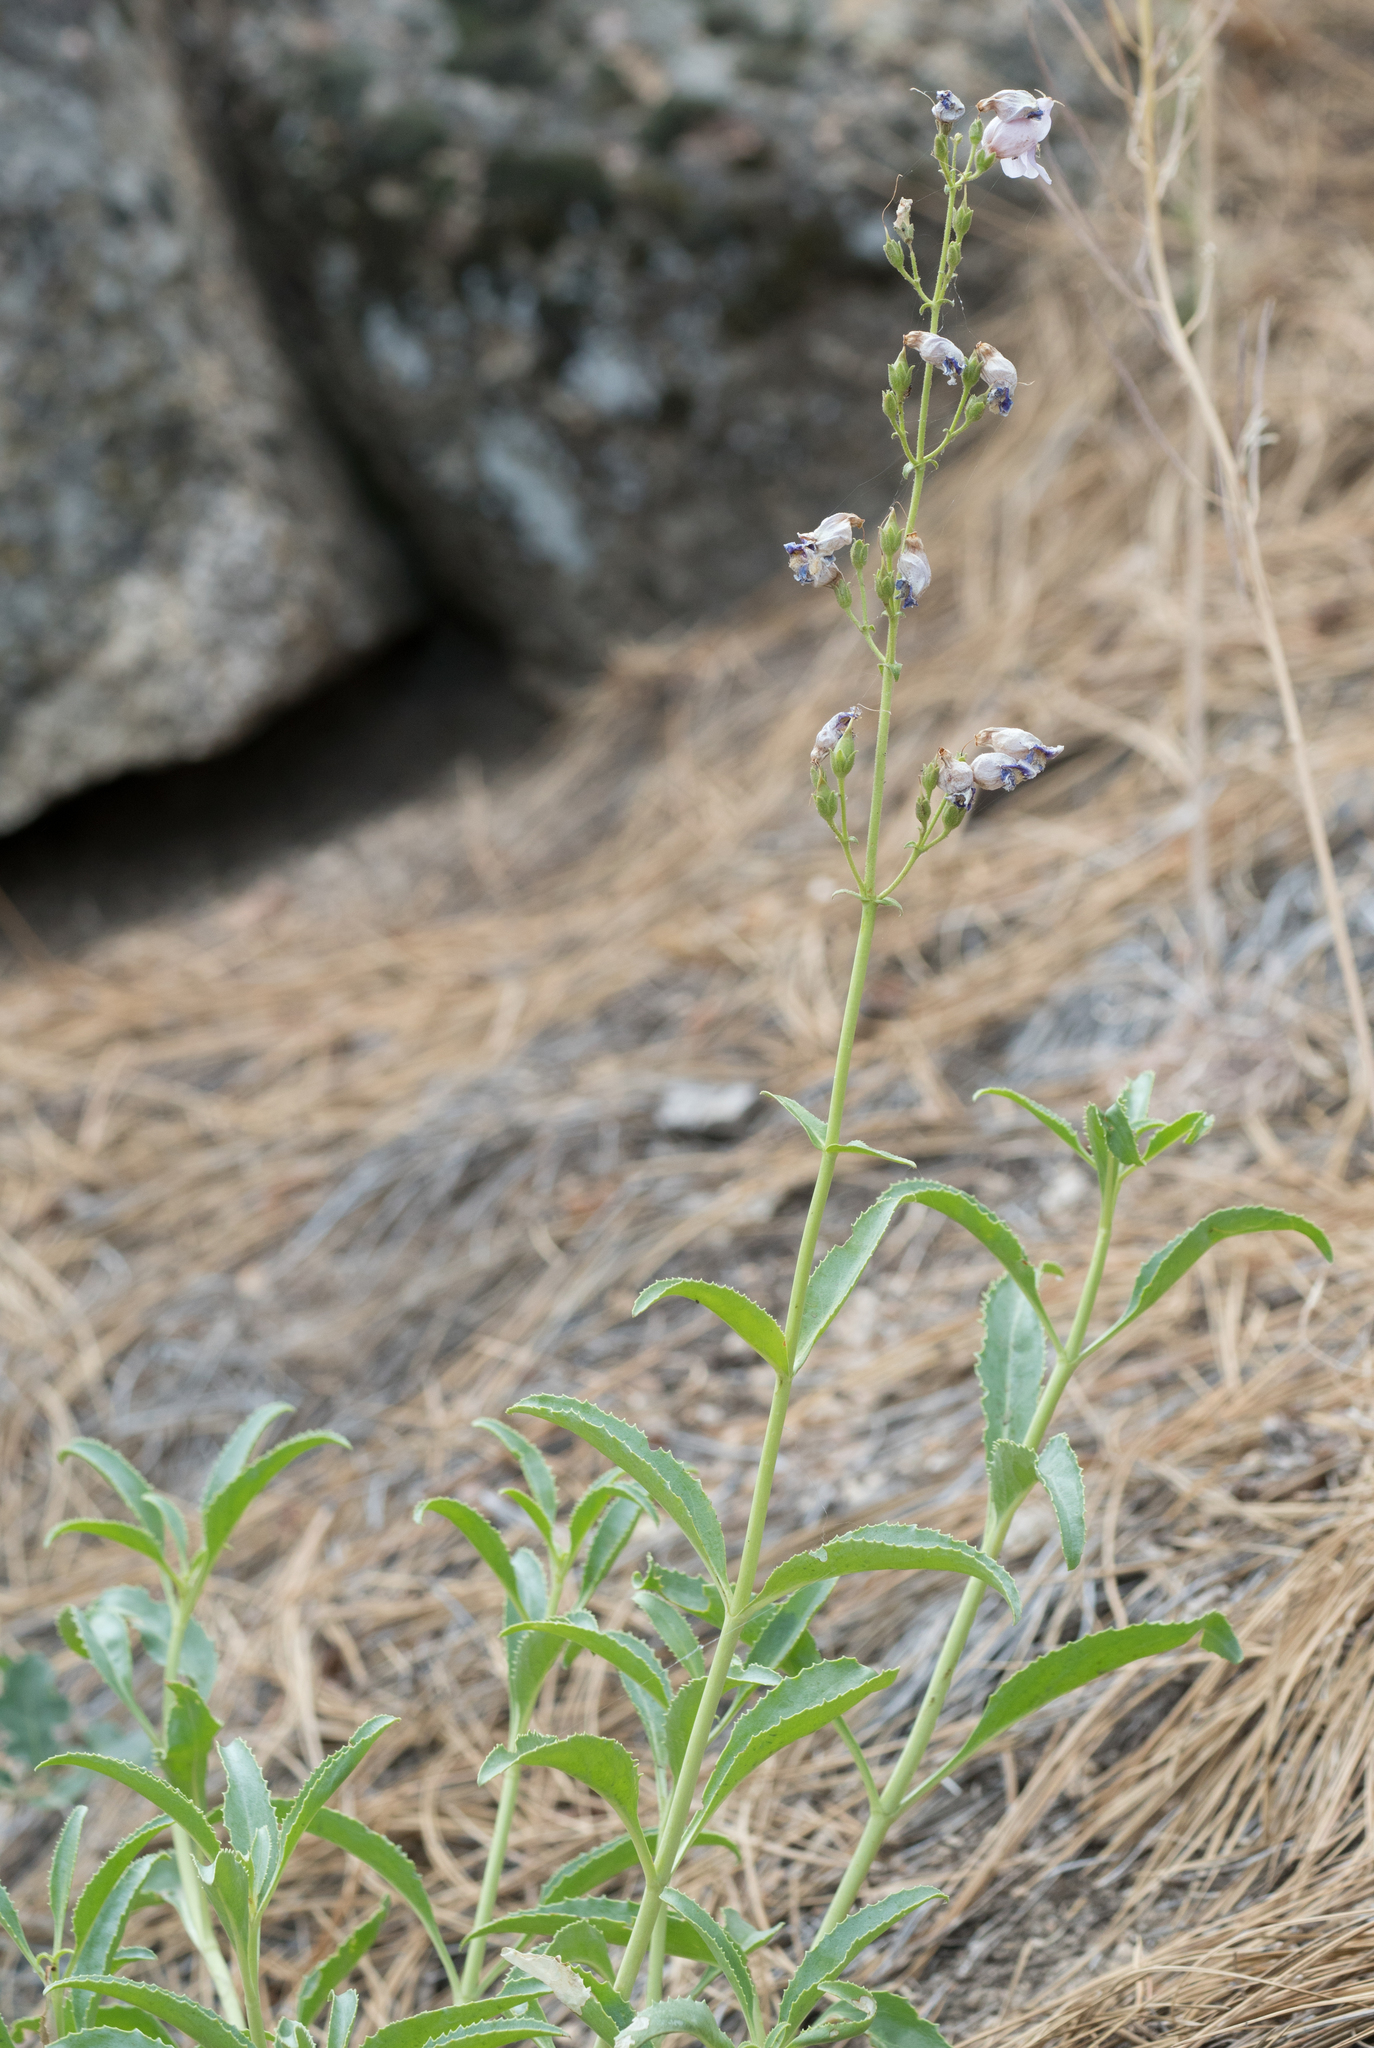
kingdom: Plantae
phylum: Tracheophyta
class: Magnoliopsida
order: Lamiales
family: Plantaginaceae
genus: Penstemon
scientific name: Penstemon grinnellii
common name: Grinnell's beardtongue
